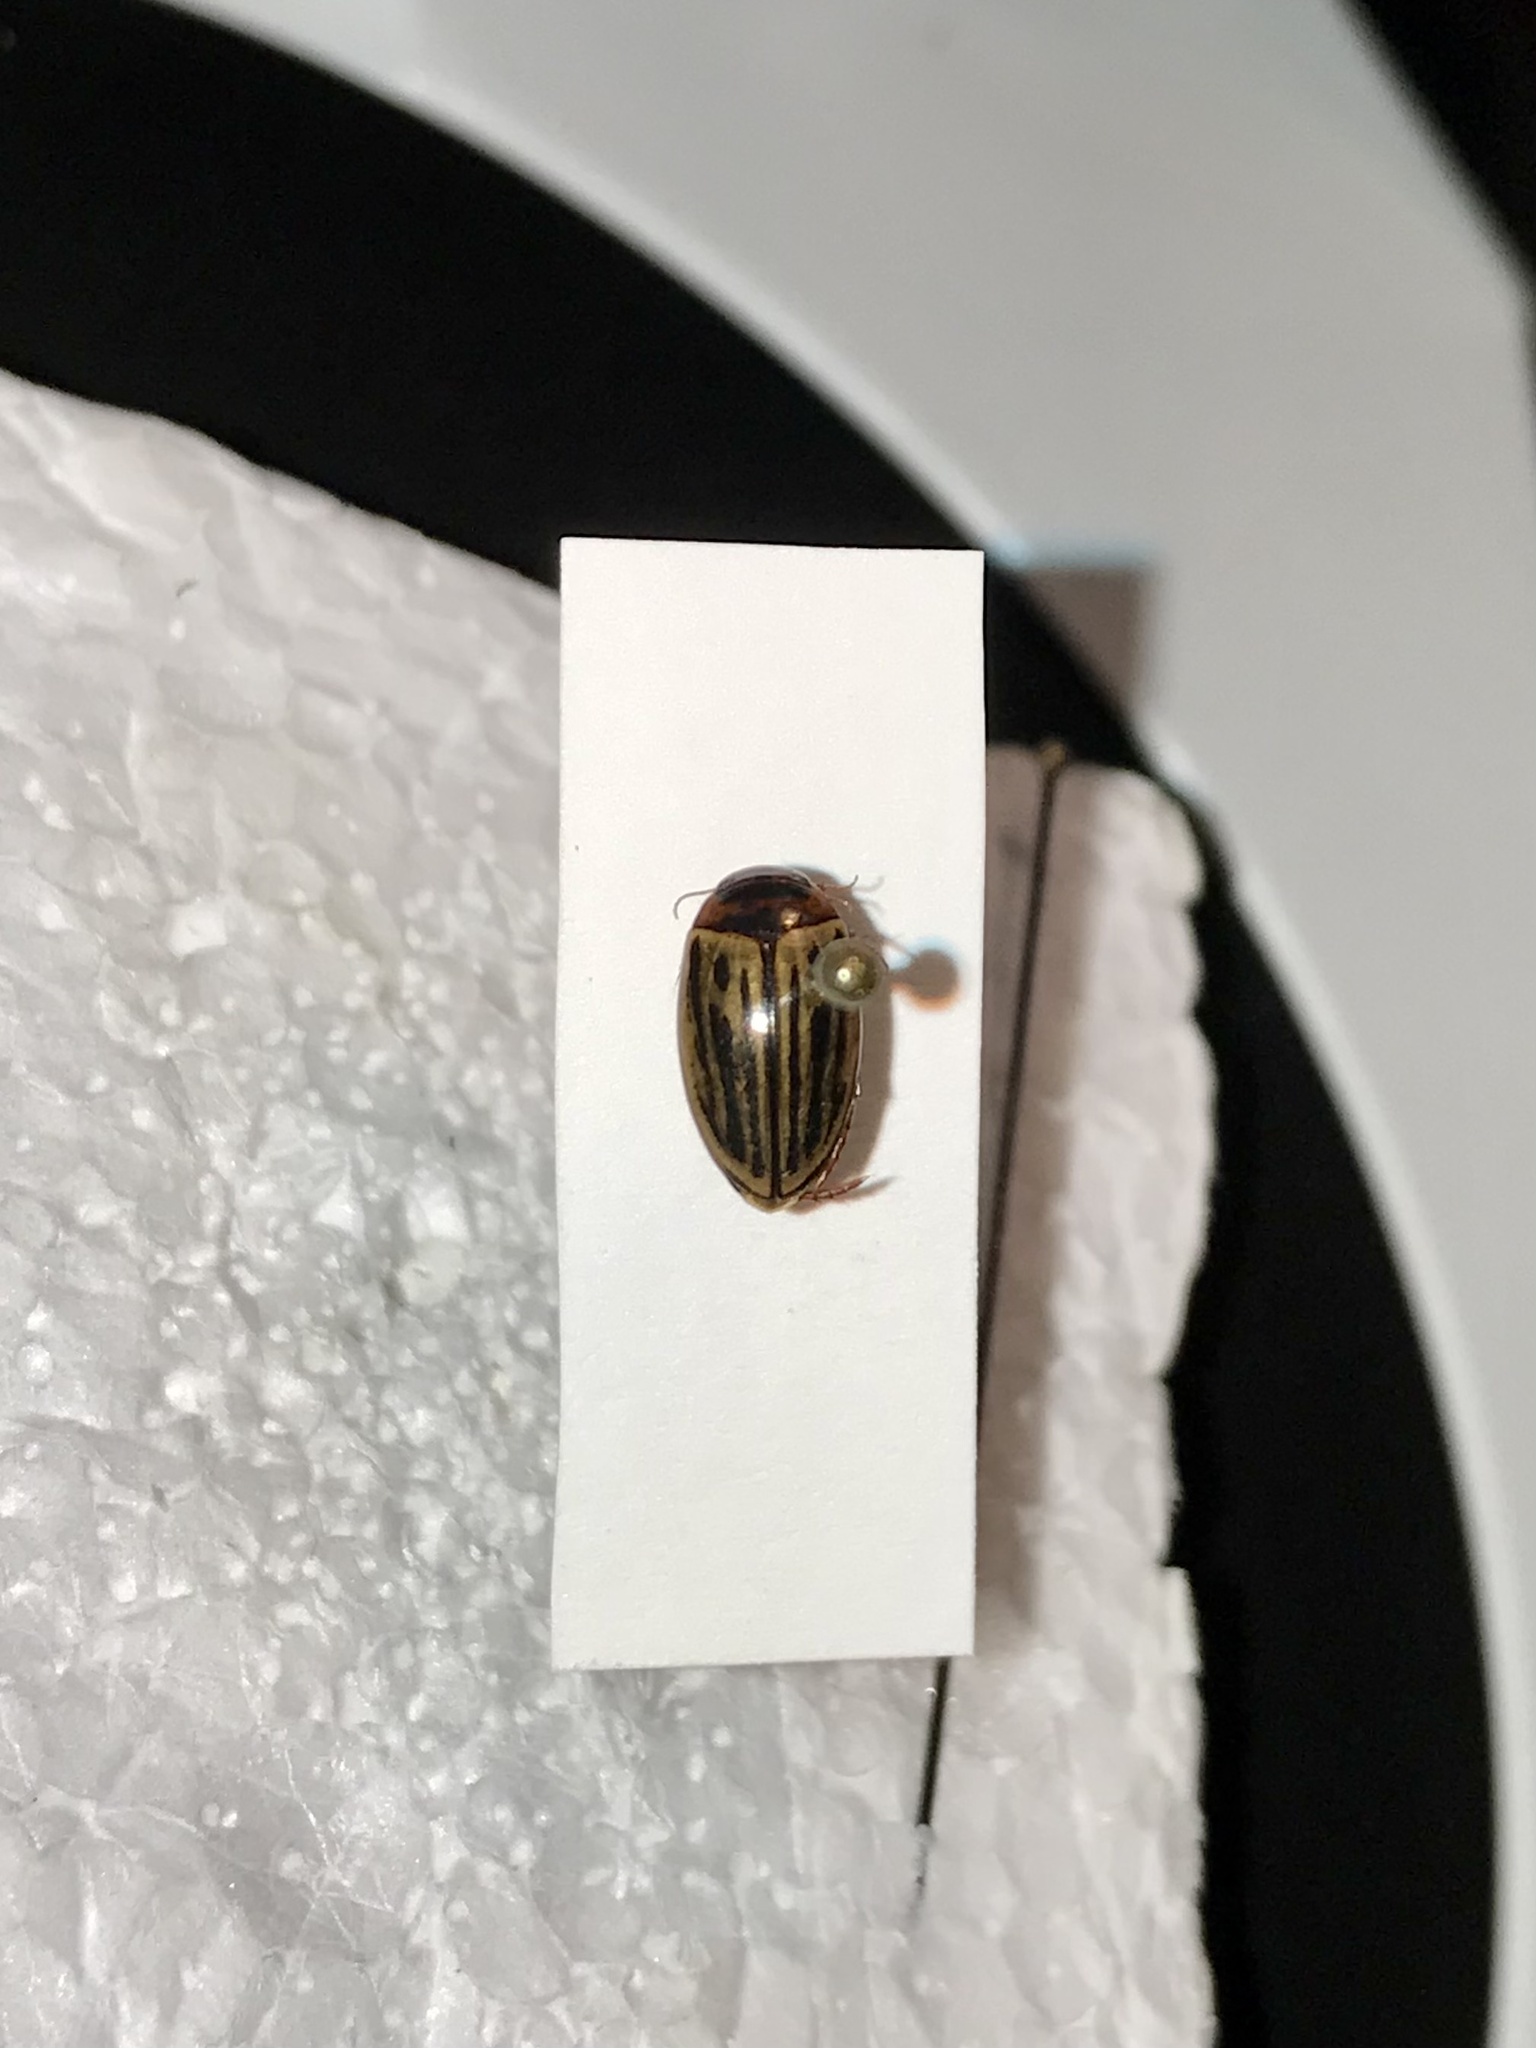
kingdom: Animalia
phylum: Arthropoda
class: Insecta
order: Coleoptera
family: Dytiscidae
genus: Agabus
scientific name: Agabus disintegratus
